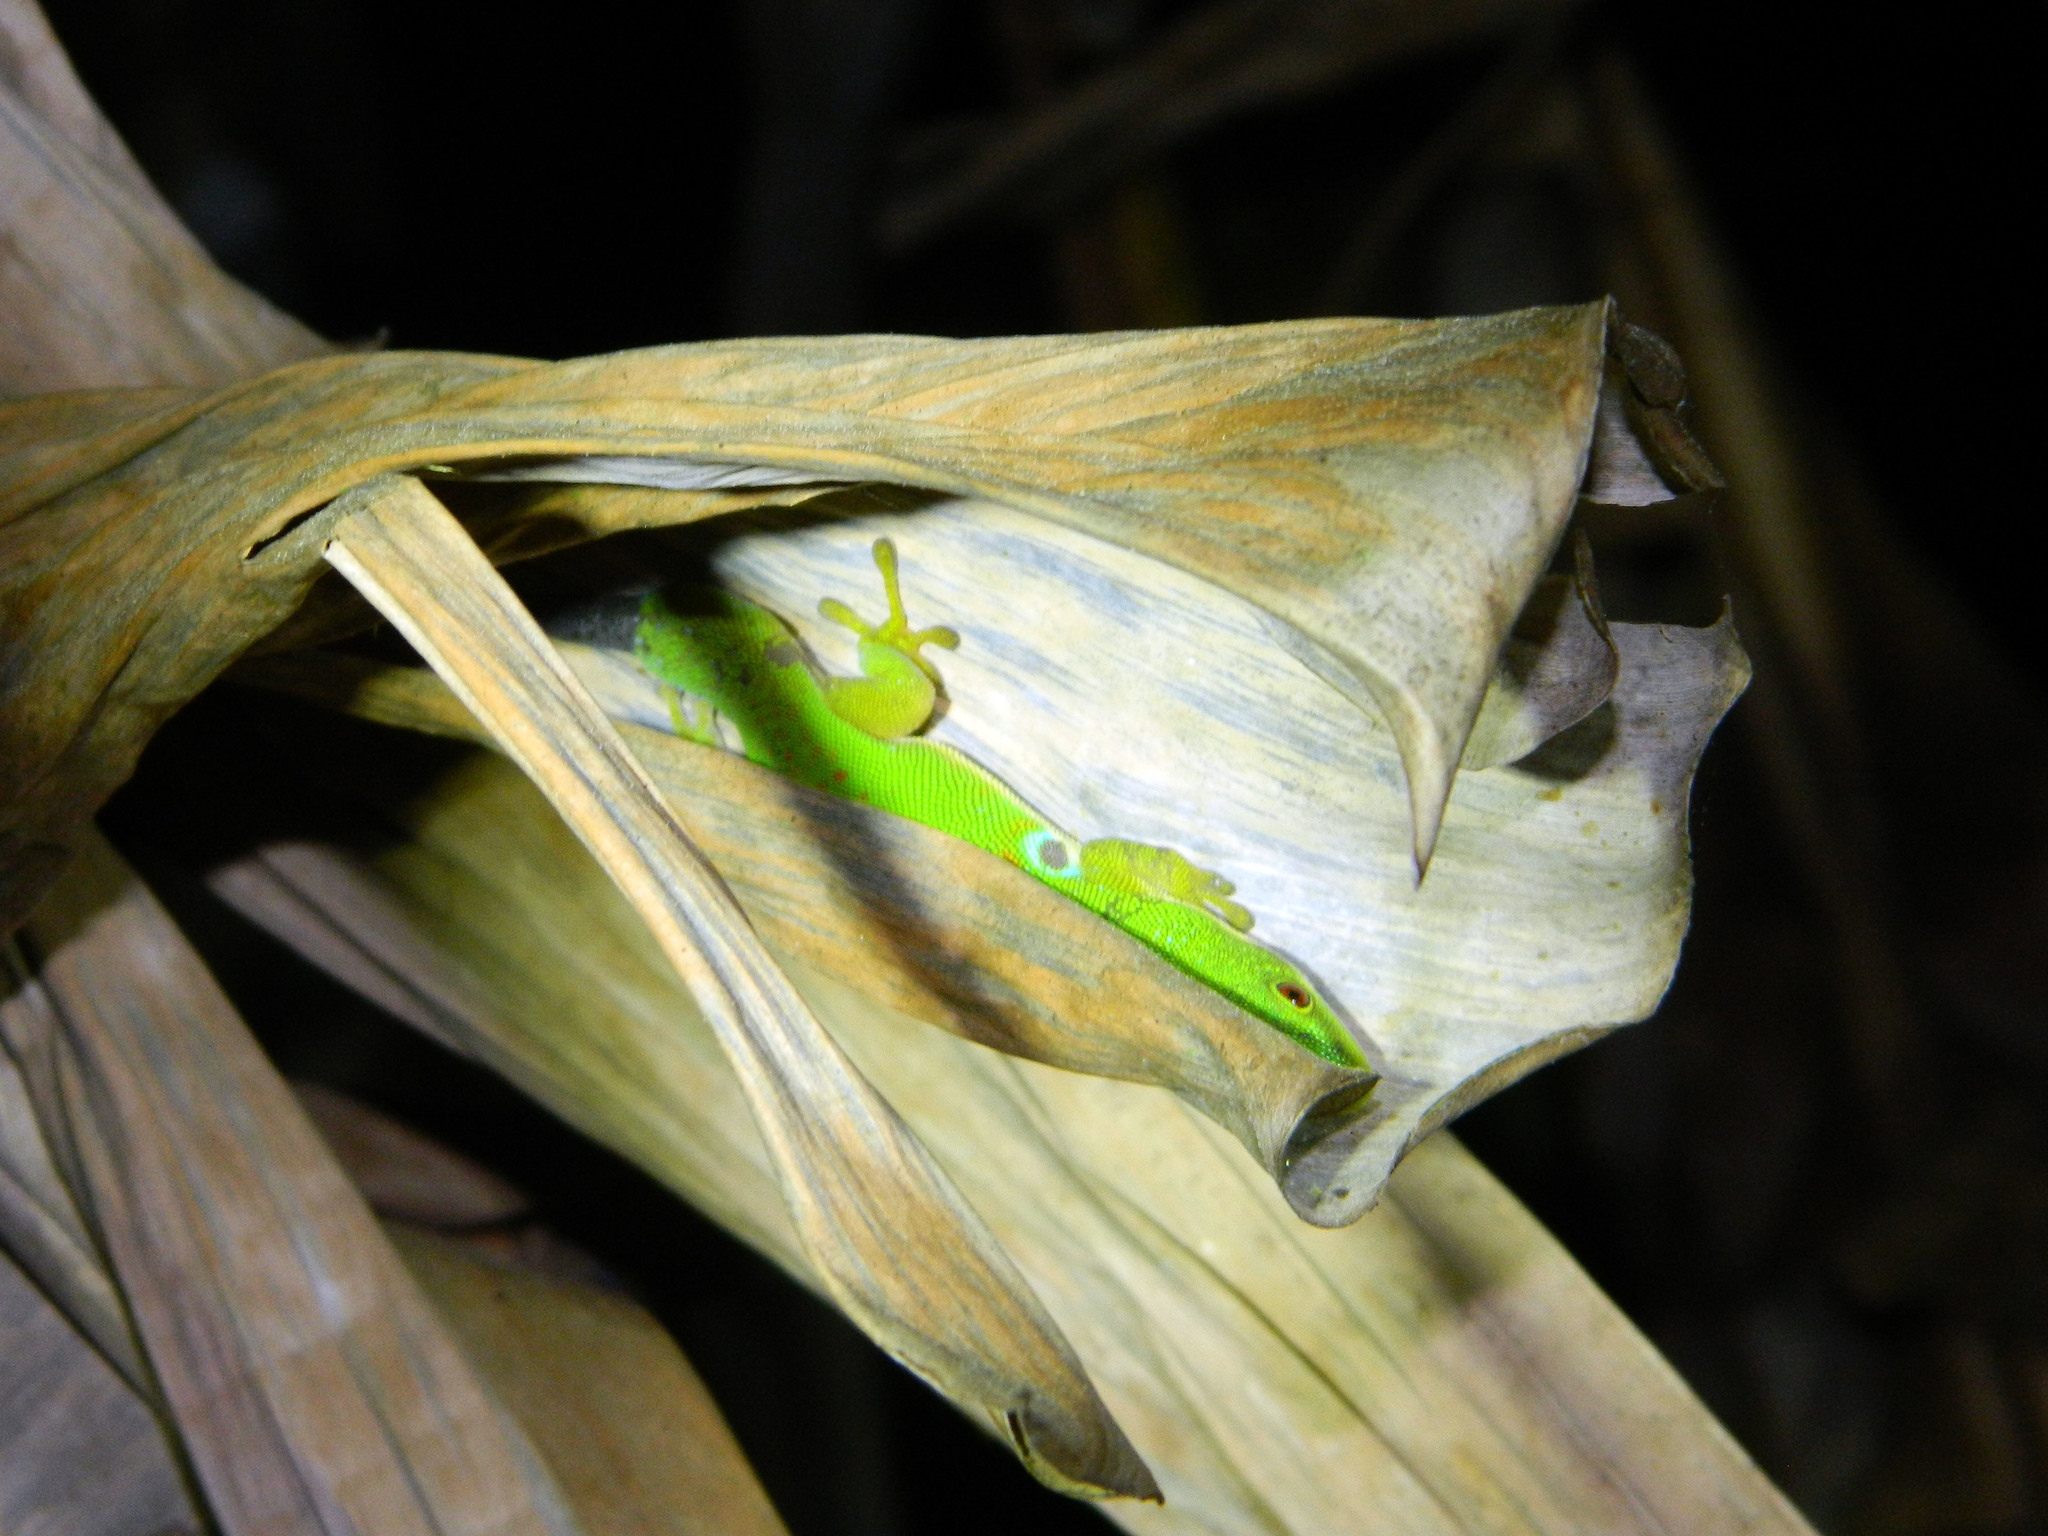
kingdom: Animalia
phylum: Chordata
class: Squamata
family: Gekkonidae
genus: Phelsuma
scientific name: Phelsuma quadriocellata
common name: Peacock day gecko
